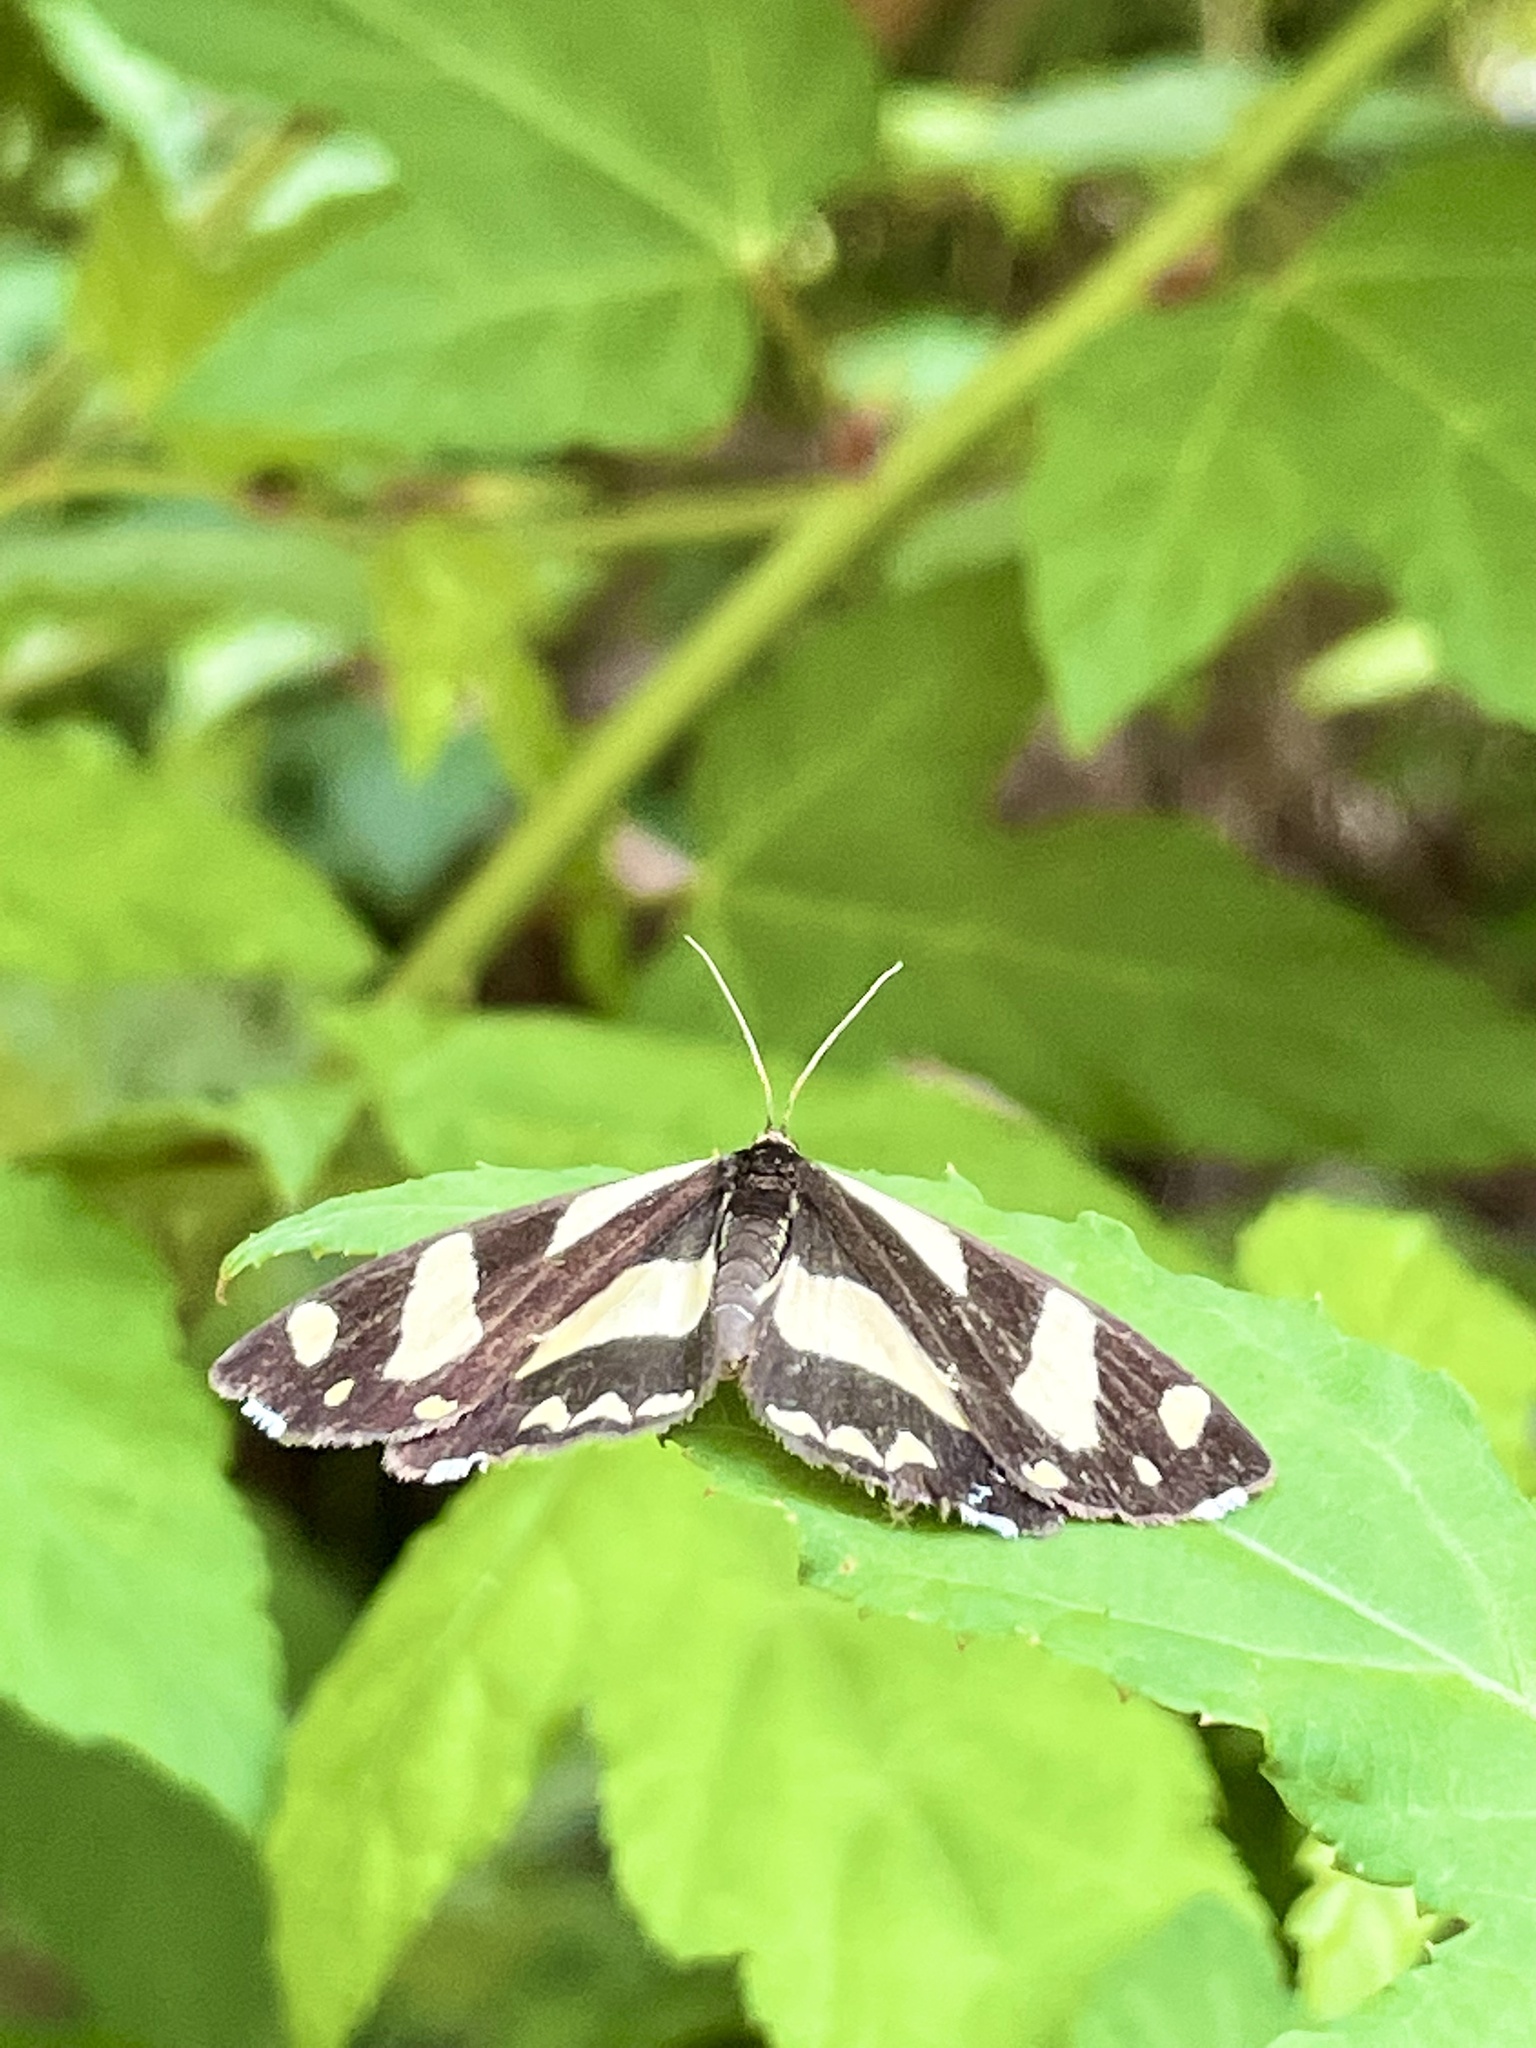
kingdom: Animalia
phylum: Arthropoda
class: Insecta
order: Lepidoptera
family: Epicopeiidae
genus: Psychostrophia
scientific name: Psychostrophia melanargia
